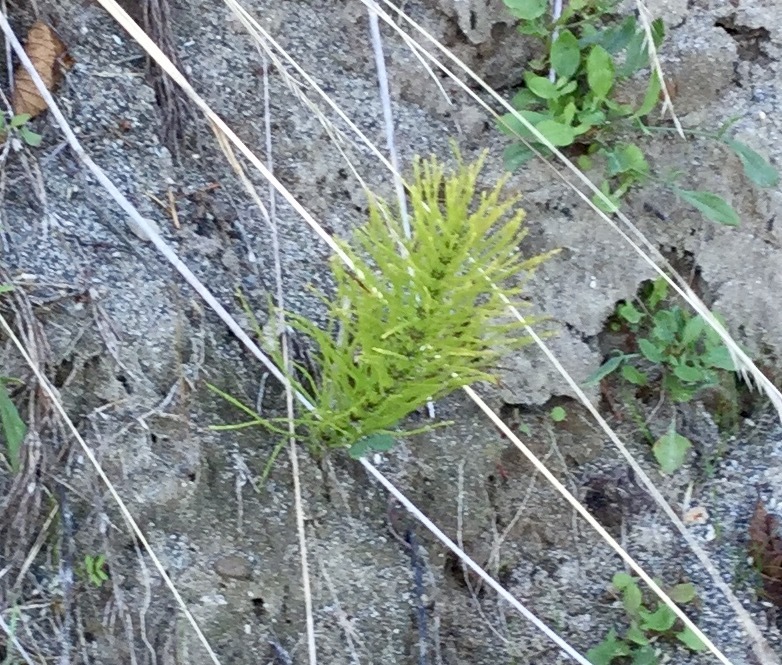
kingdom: Plantae
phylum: Tracheophyta
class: Polypodiopsida
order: Equisetales
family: Equisetaceae
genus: Equisetum
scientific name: Equisetum braunii
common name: Braun's horsetail
